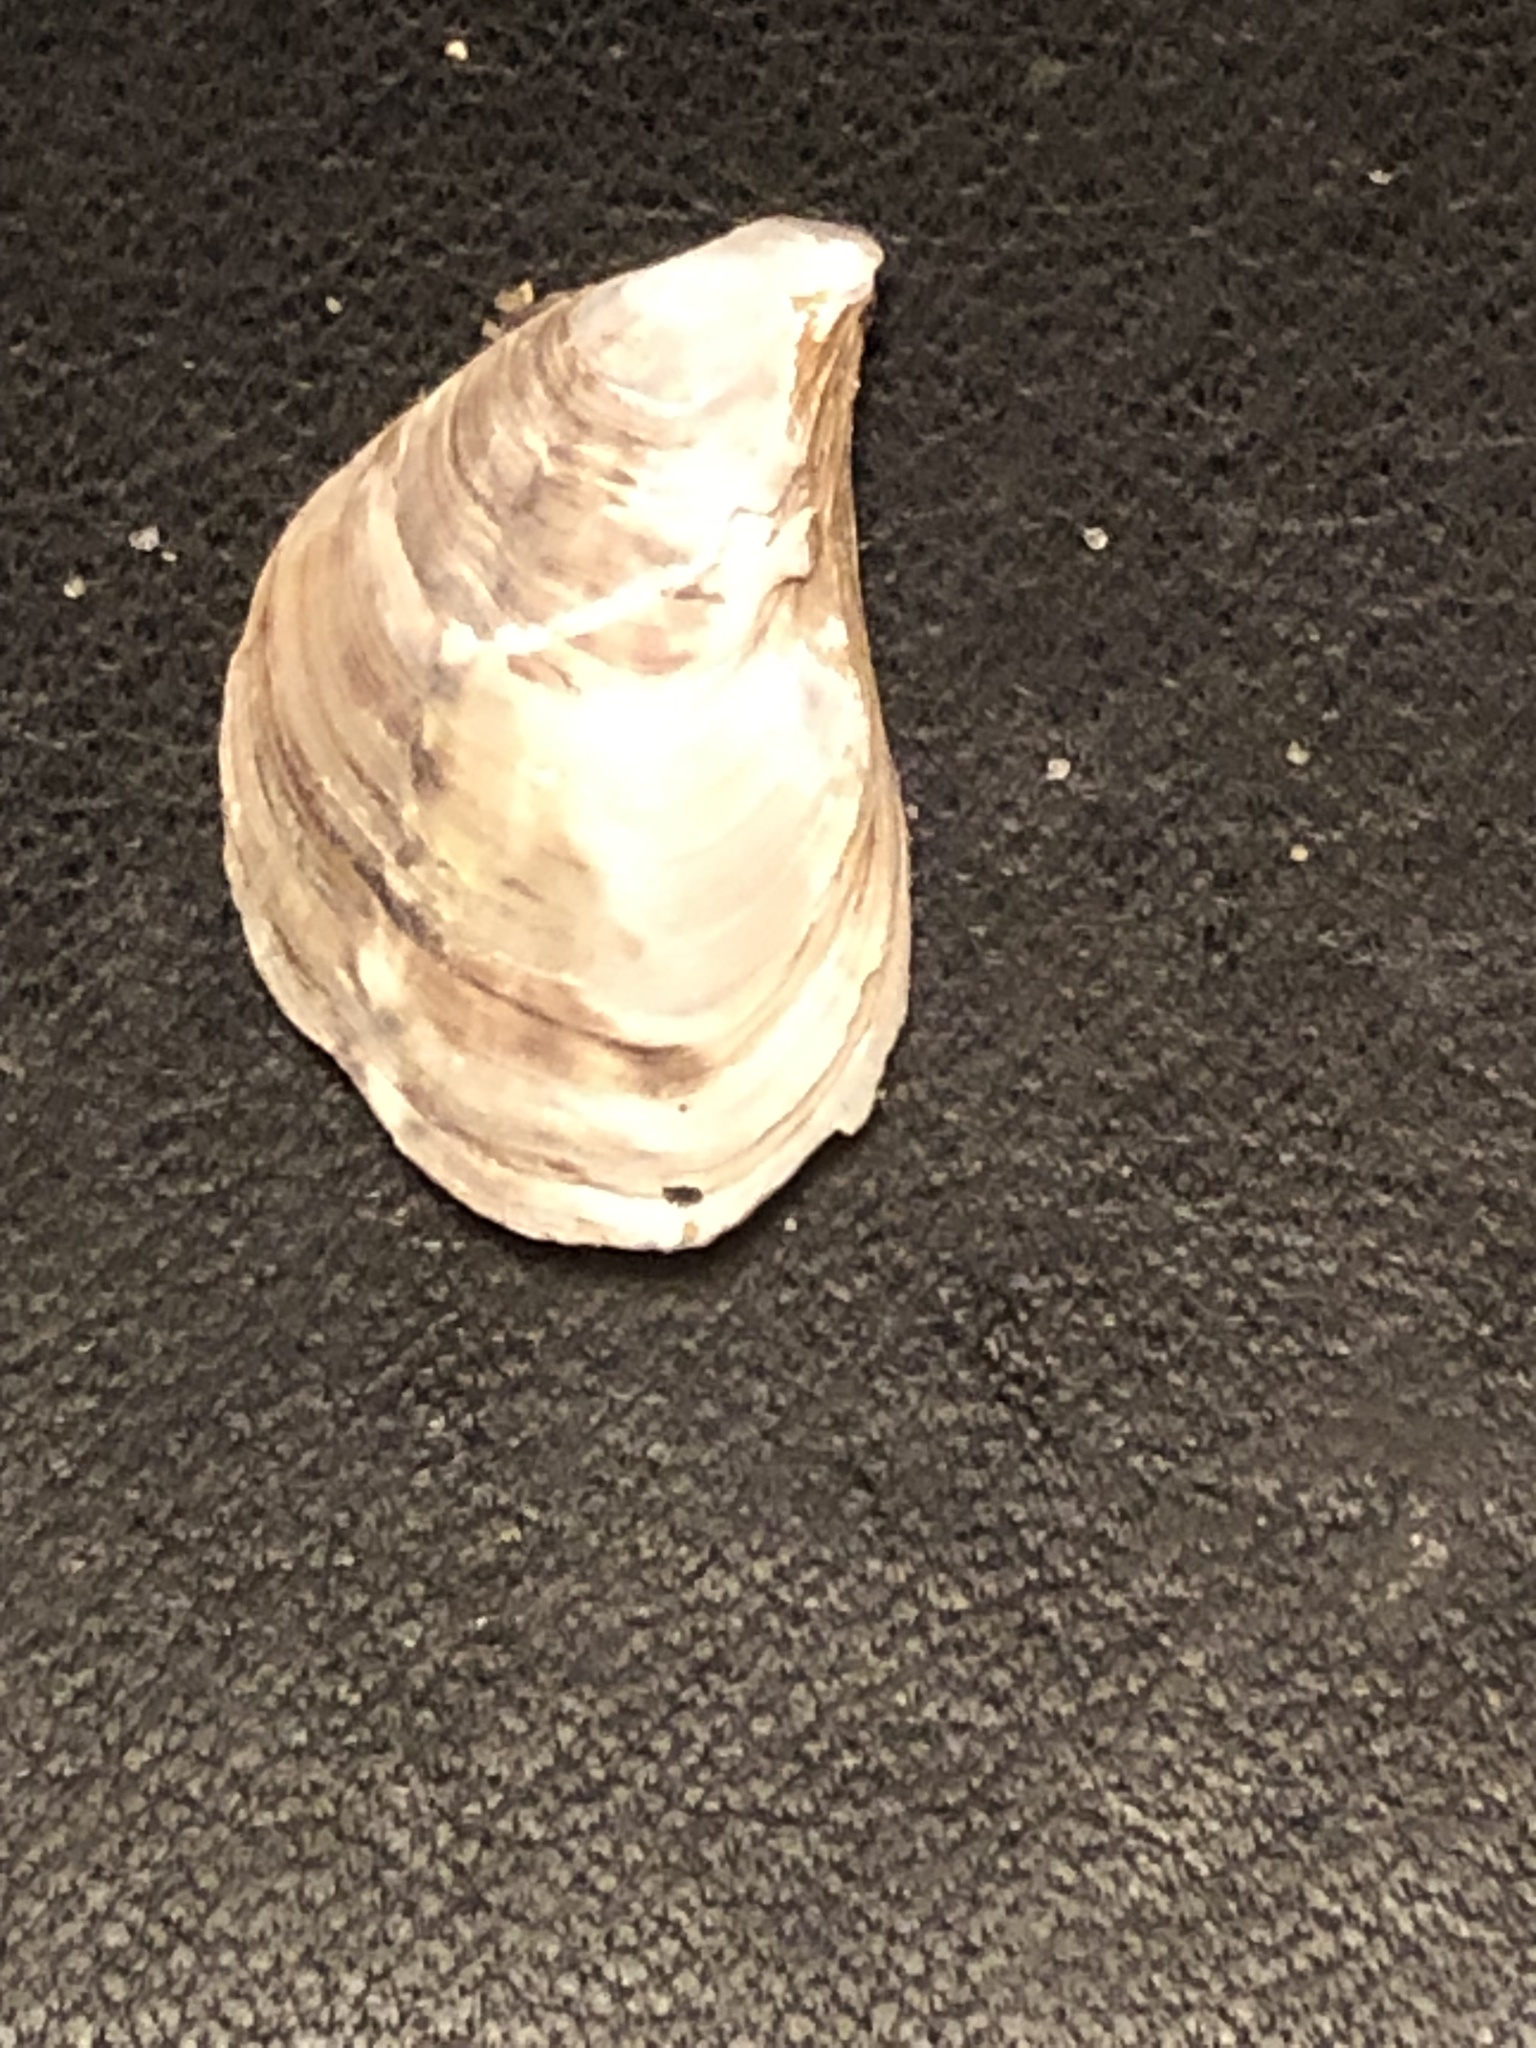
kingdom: Animalia
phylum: Mollusca
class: Bivalvia
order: Myida
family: Dreissenidae
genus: Dreissena
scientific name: Dreissena bugensis
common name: Quagga mussel
